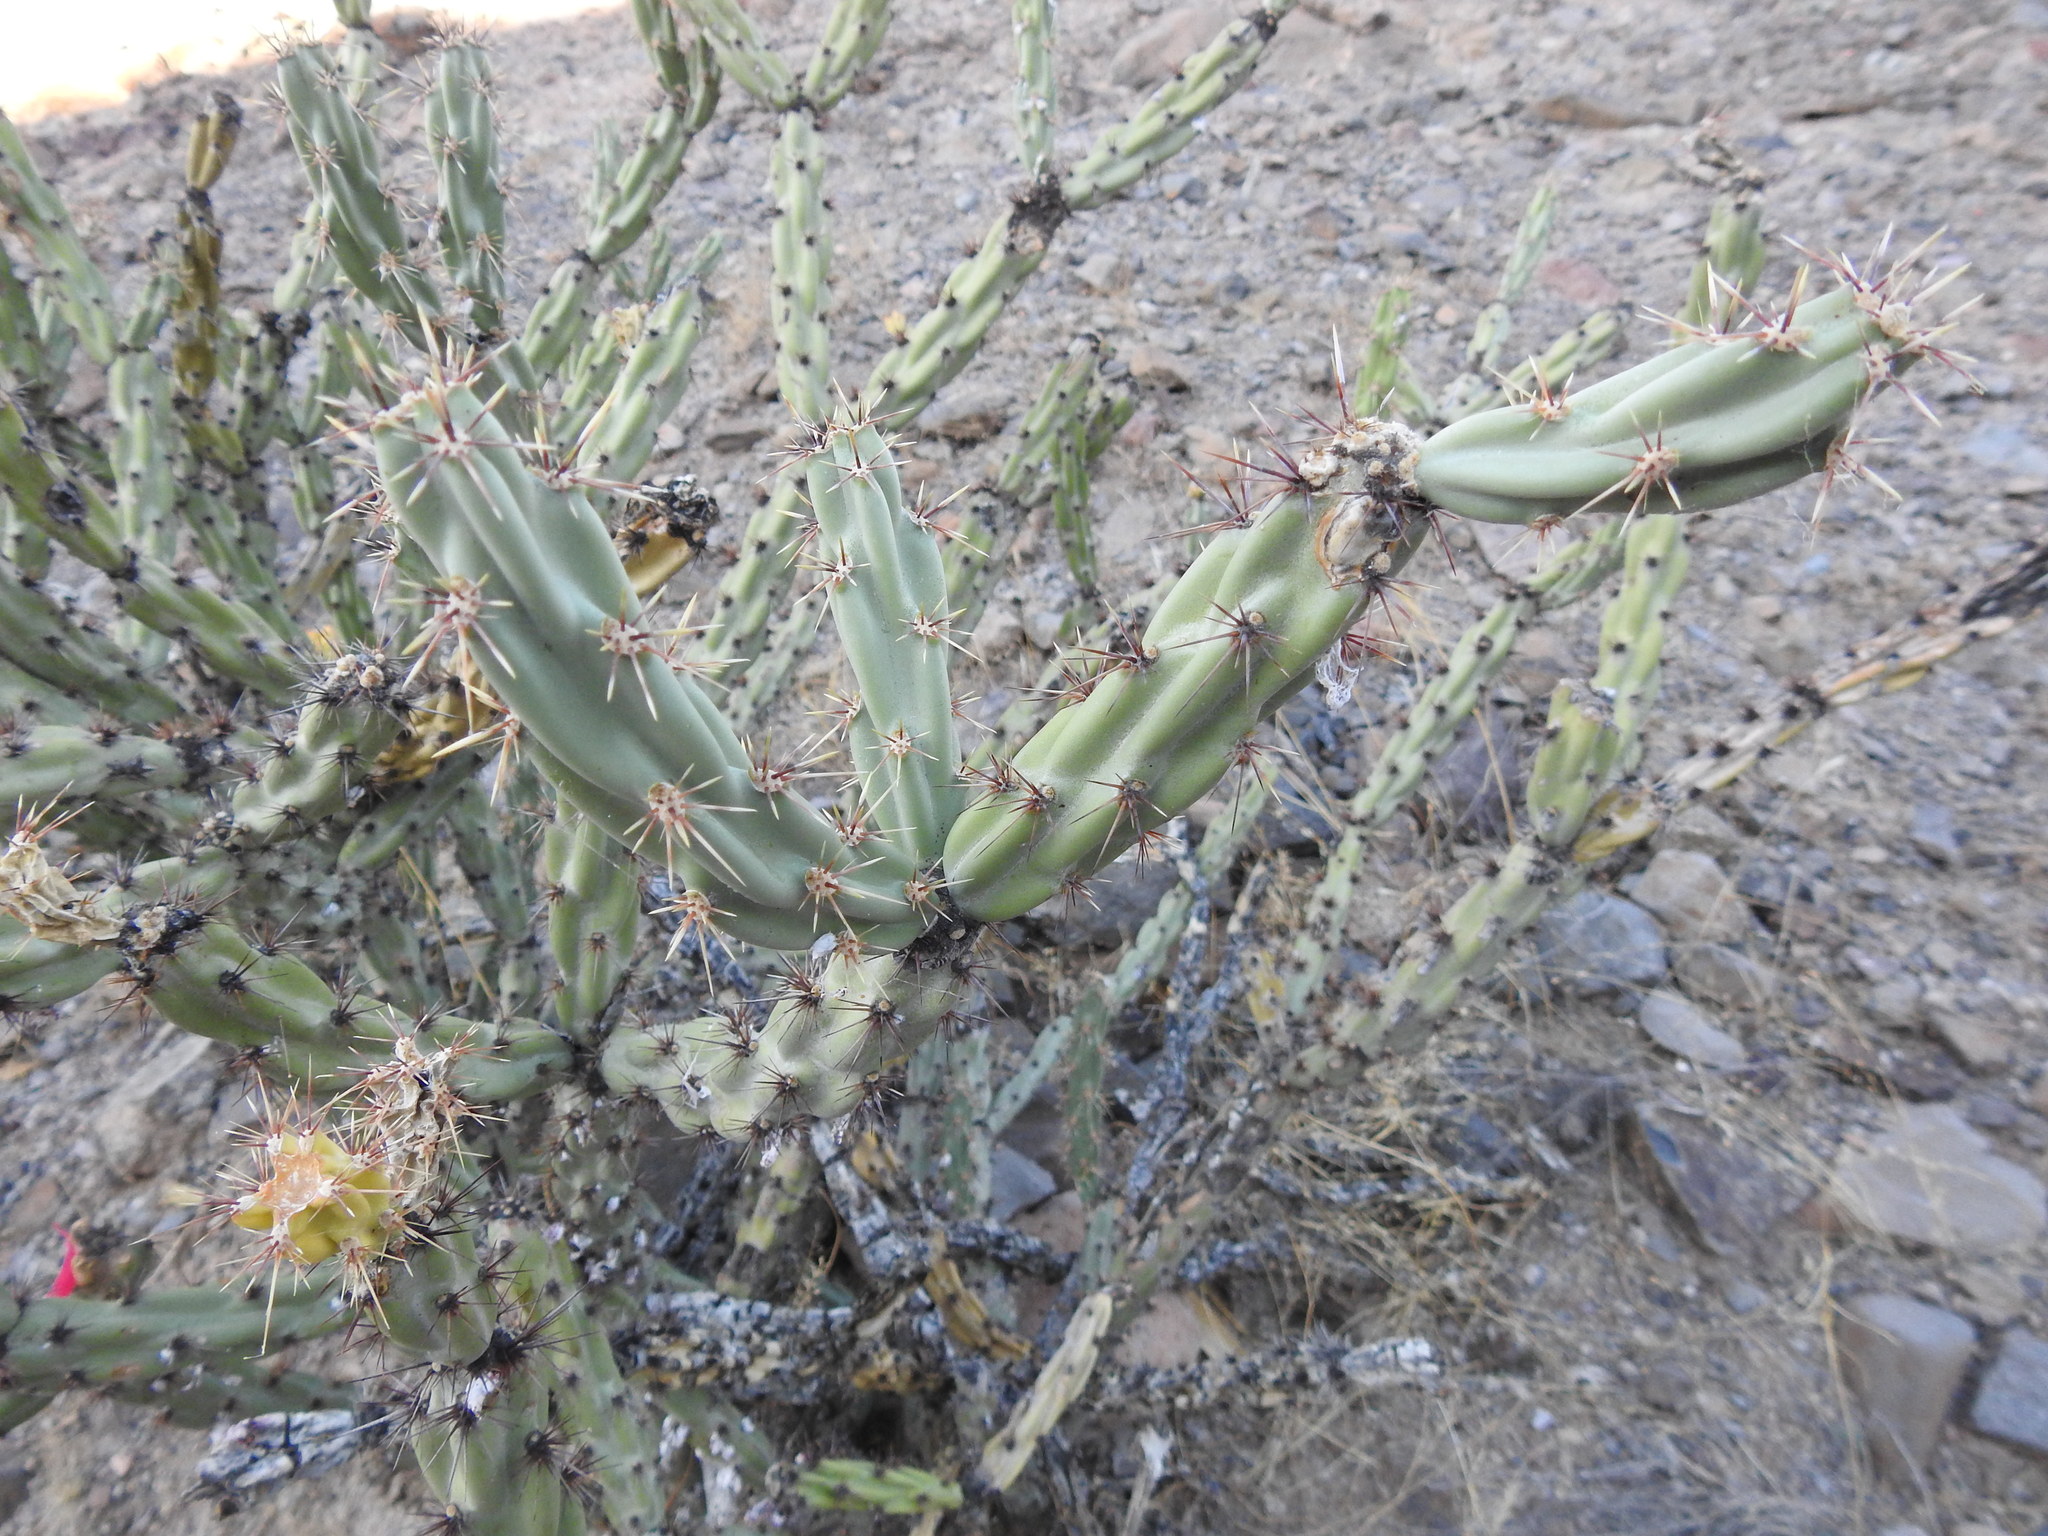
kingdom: Plantae
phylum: Tracheophyta
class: Magnoliopsida
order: Caryophyllales
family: Cactaceae
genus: Cylindropuntia
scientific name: Cylindropuntia acanthocarpa
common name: Buckhorn cholla
